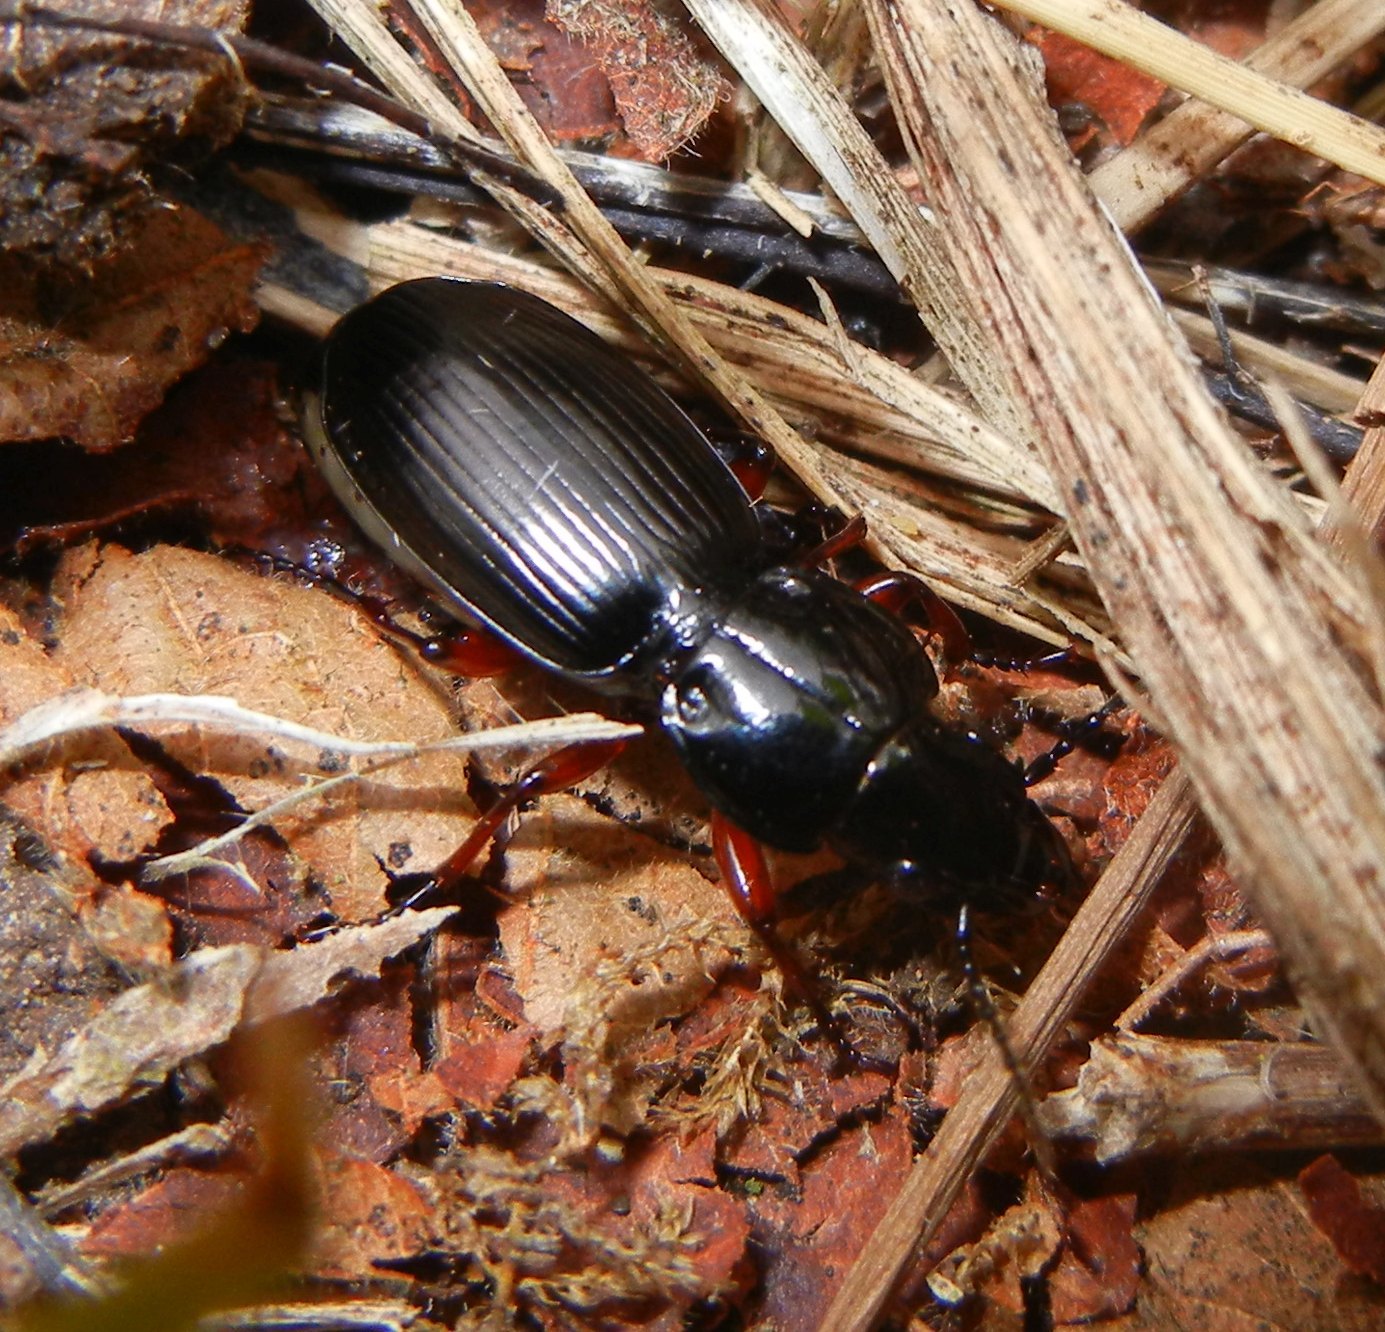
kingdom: Animalia
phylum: Arthropoda
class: Insecta
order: Coleoptera
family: Carabidae
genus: Pterostichus
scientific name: Pterostichus madidus
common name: Black clock
